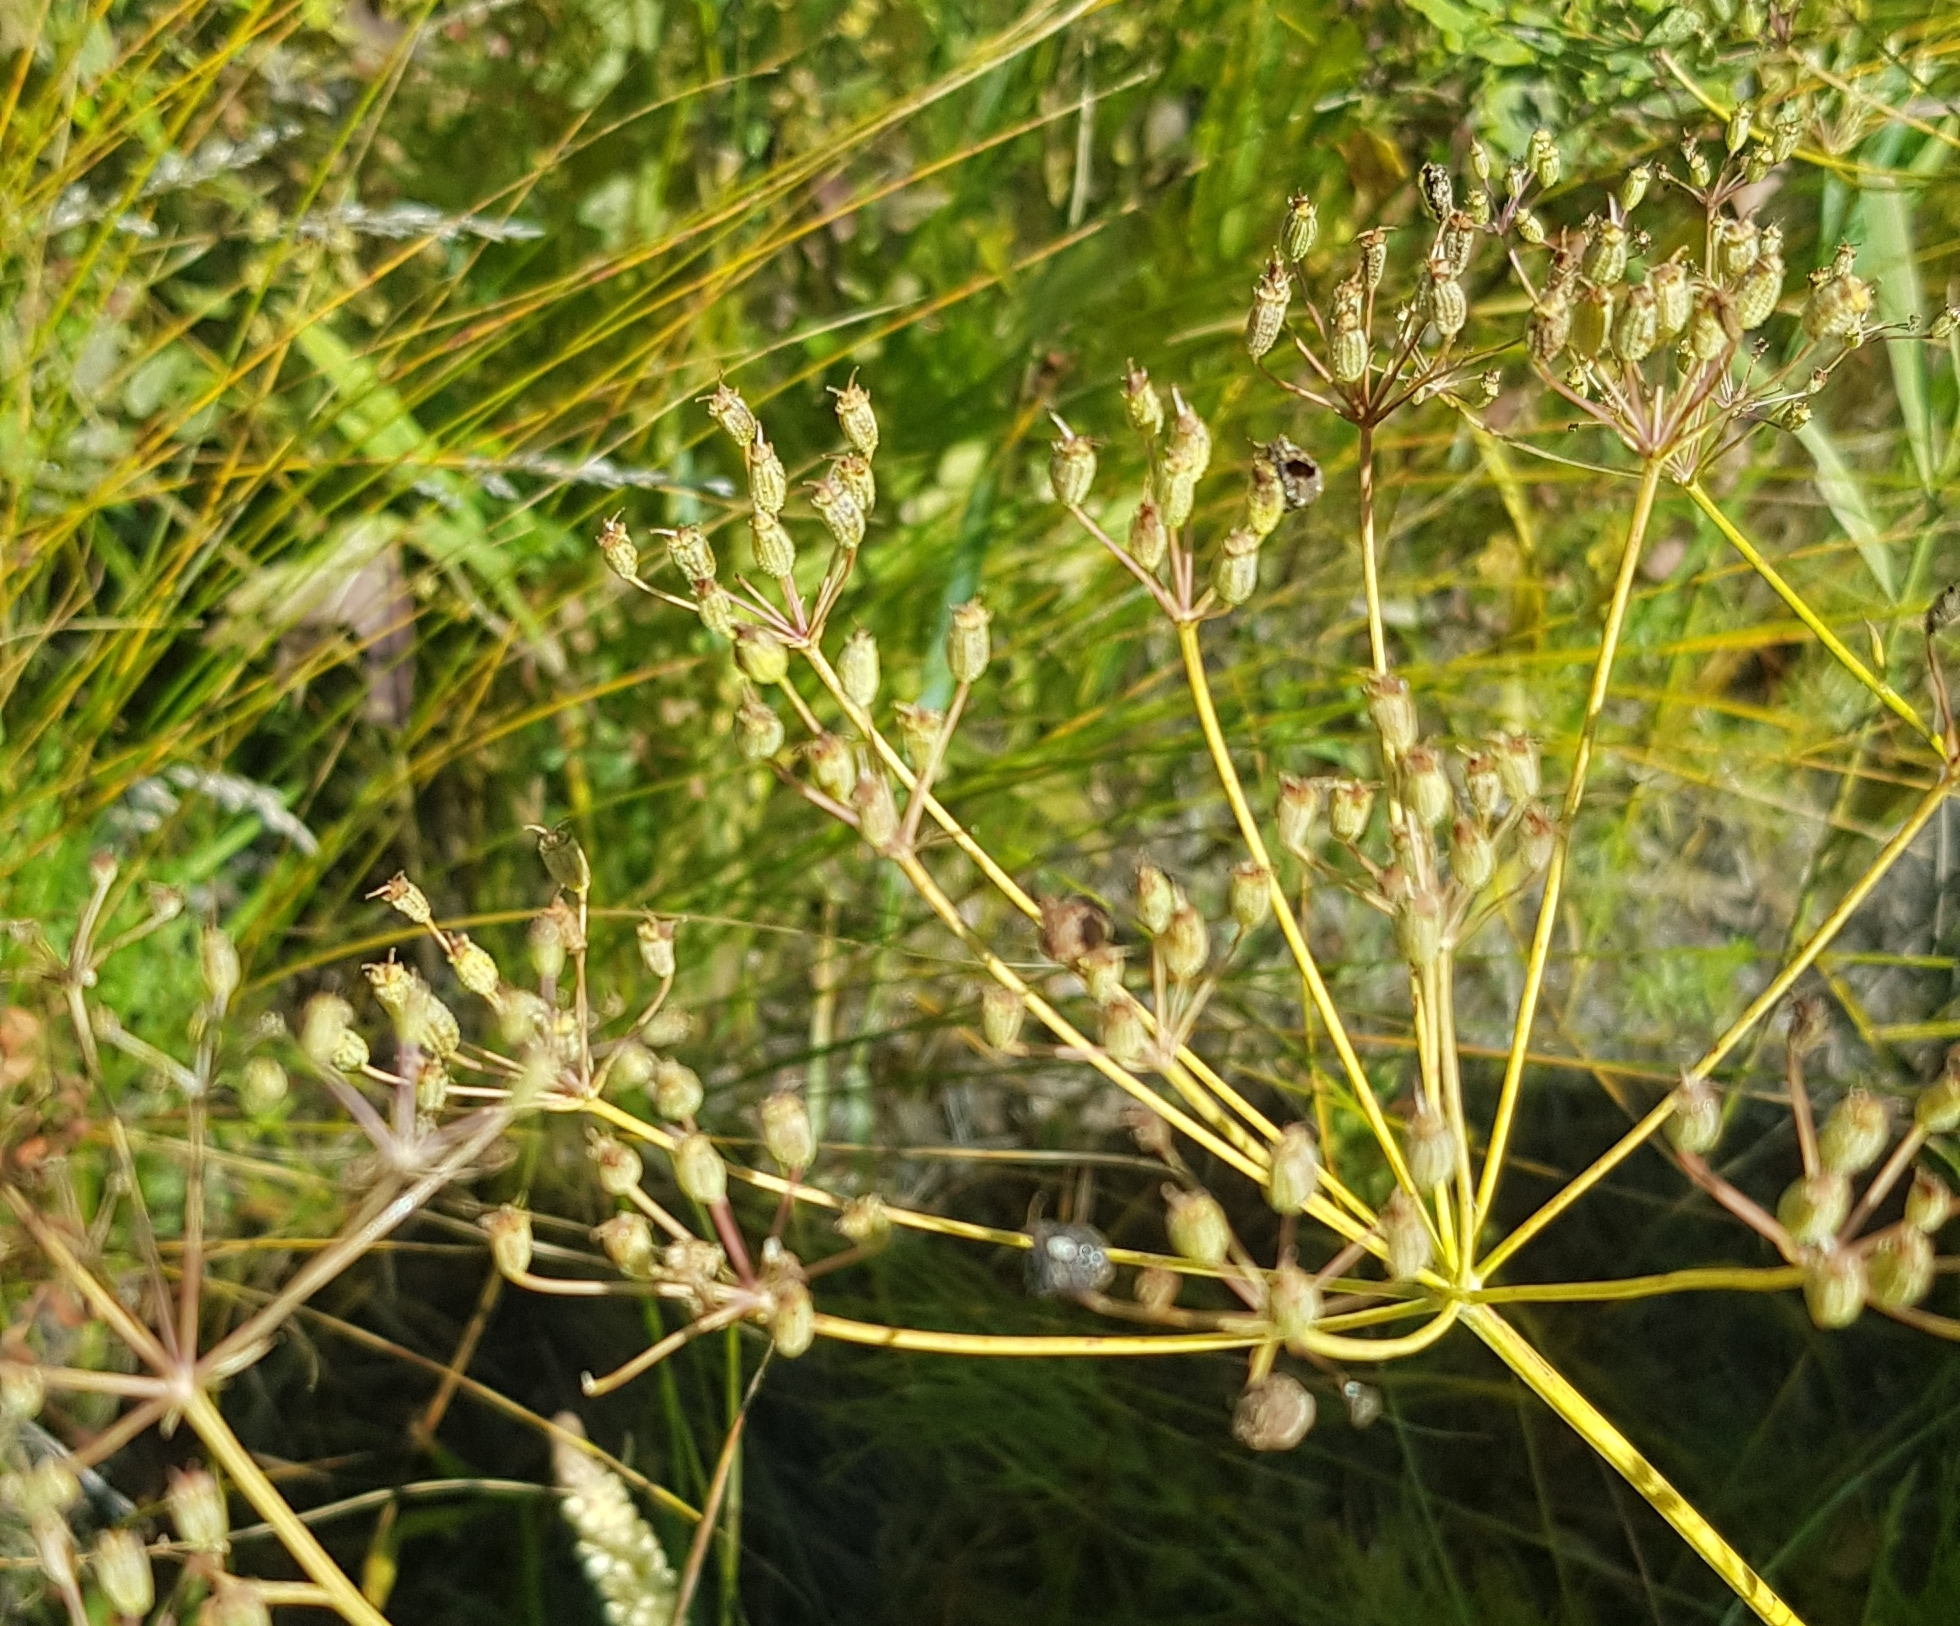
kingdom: Plantae
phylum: Tracheophyta
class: Magnoliopsida
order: Apiales
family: Apiaceae
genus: Saposhnikovia
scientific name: Saposhnikovia divaricata
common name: Siler
